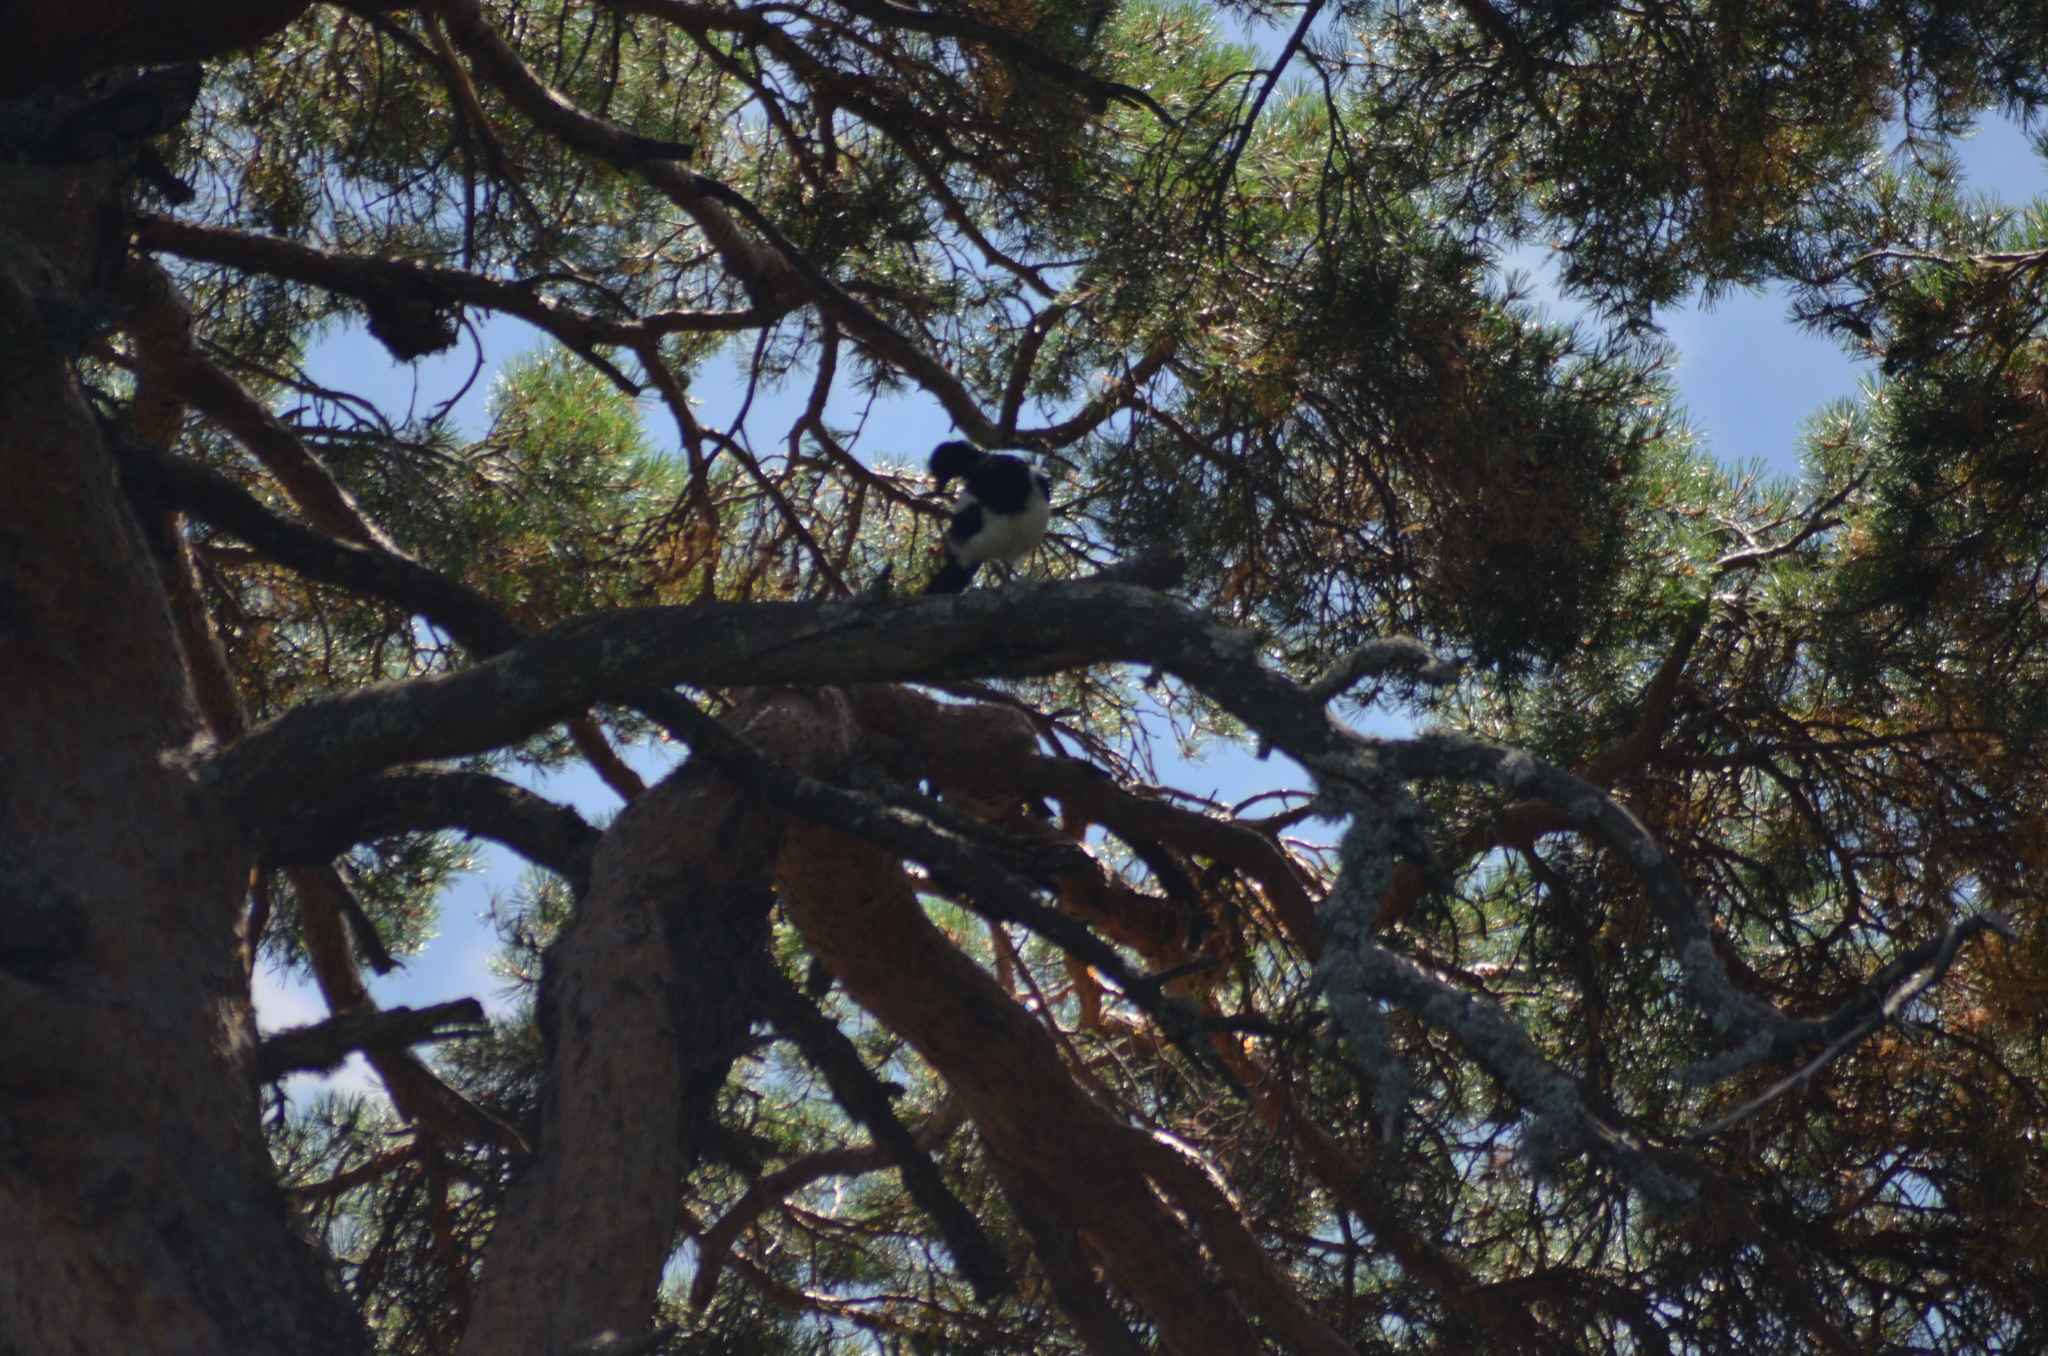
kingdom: Animalia
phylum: Chordata
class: Aves
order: Passeriformes
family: Corvidae
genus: Pica
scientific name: Pica pica
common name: Eurasian magpie
